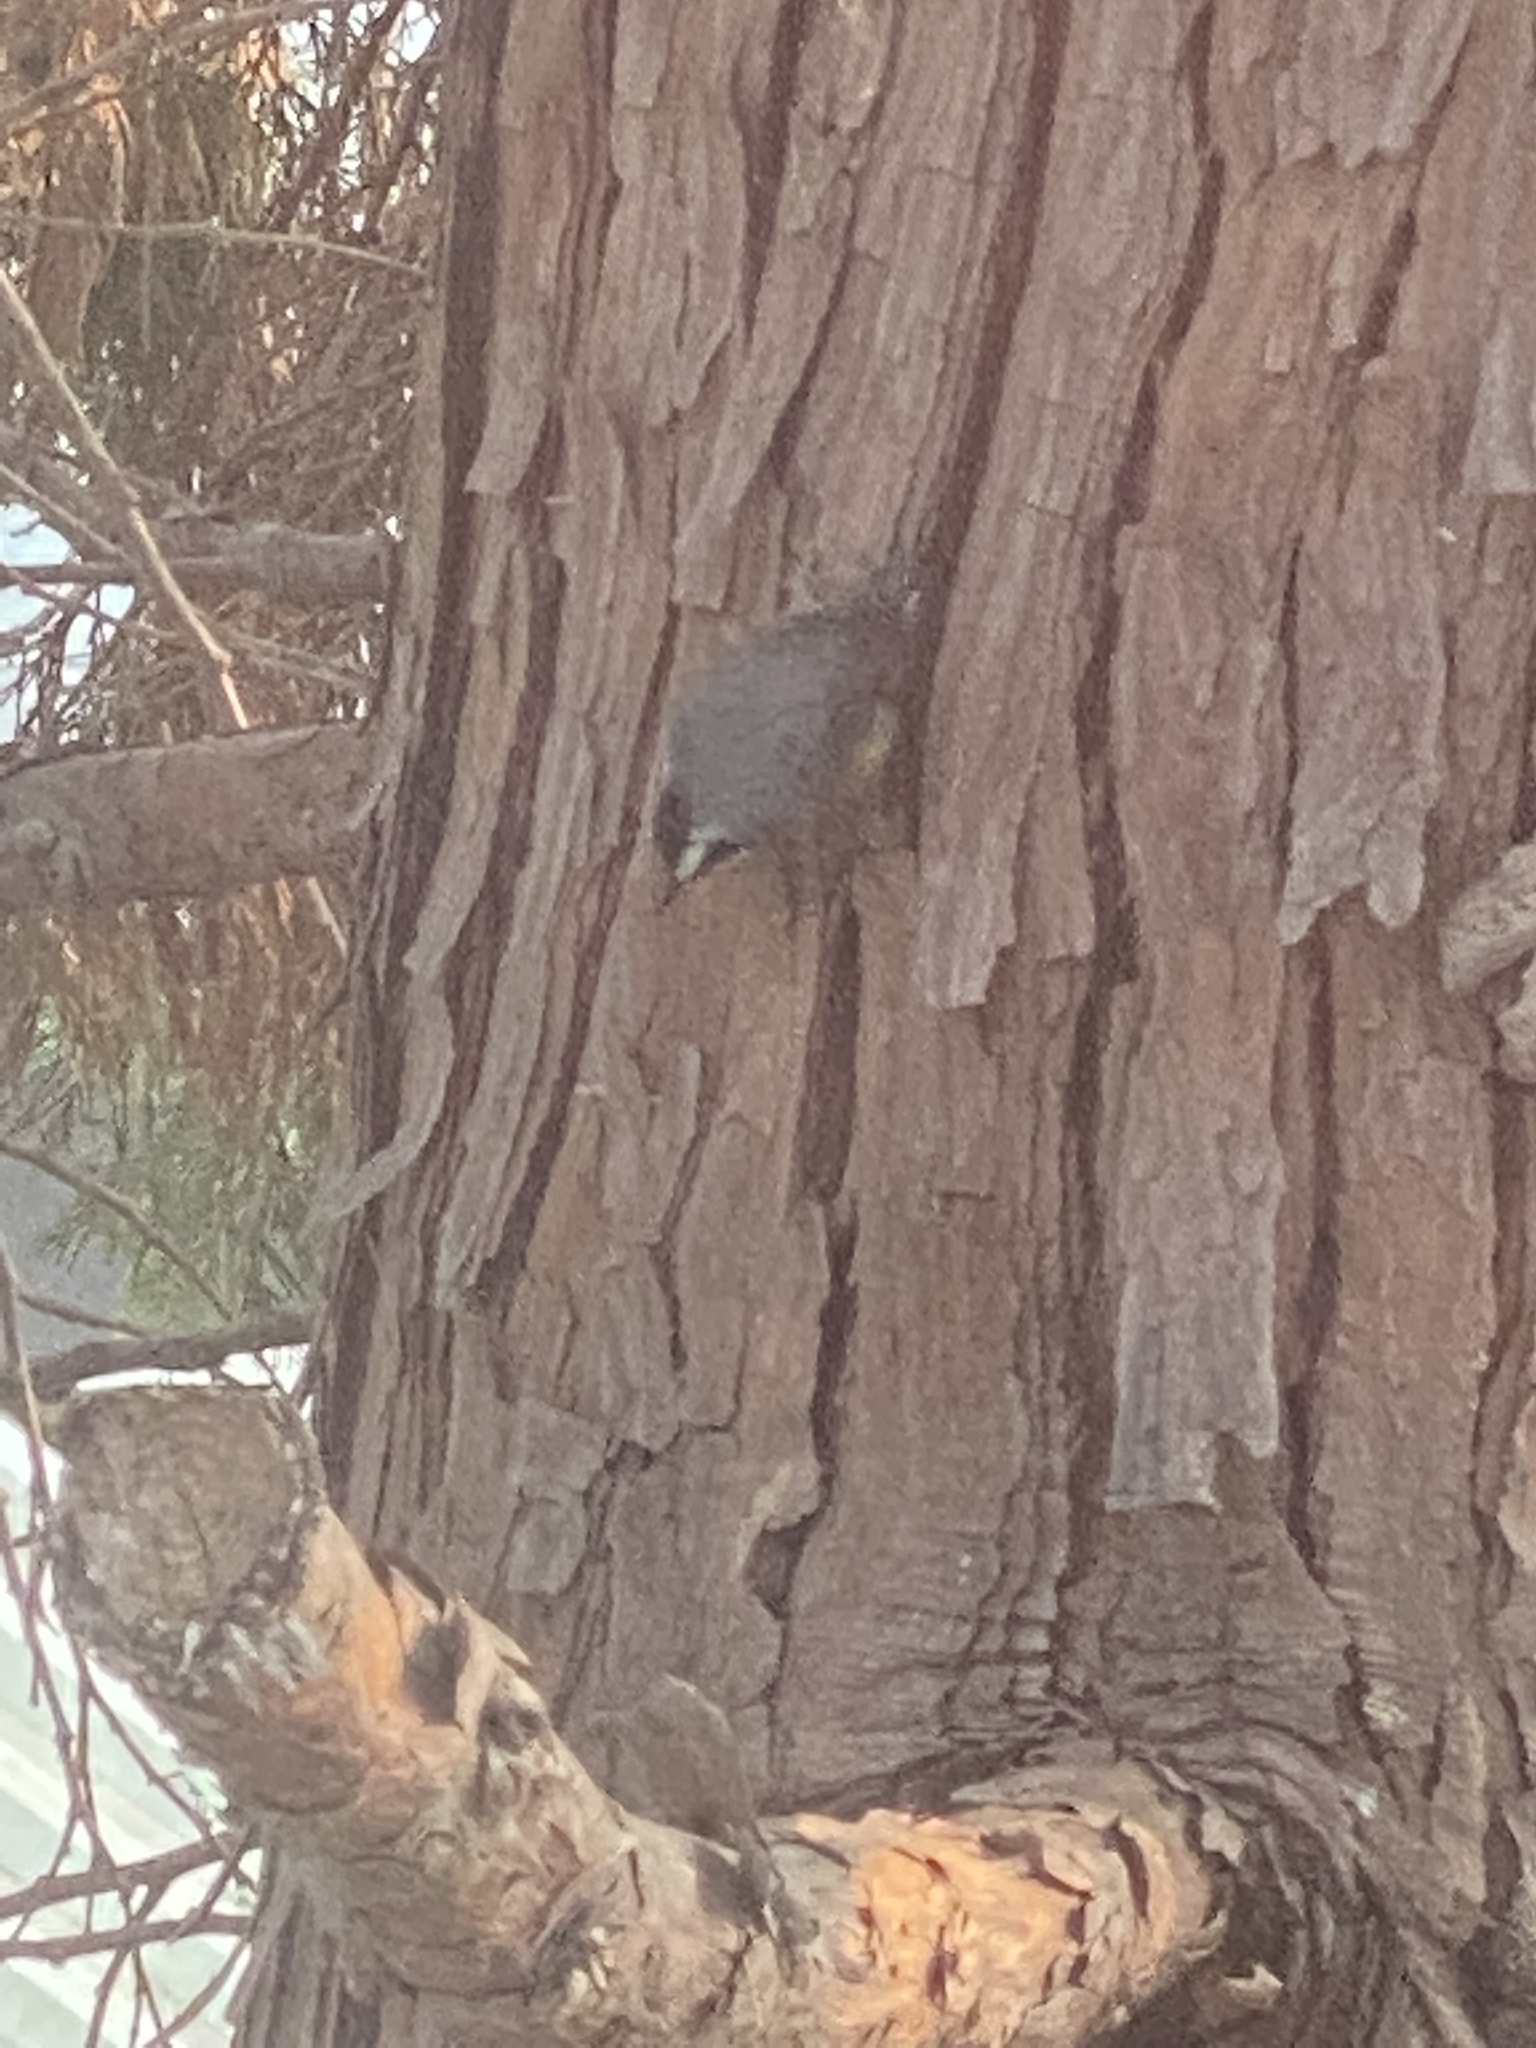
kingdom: Animalia
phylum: Chordata
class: Aves
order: Passeriformes
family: Sittidae
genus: Sitta
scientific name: Sitta canadensis
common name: Red-breasted nuthatch
